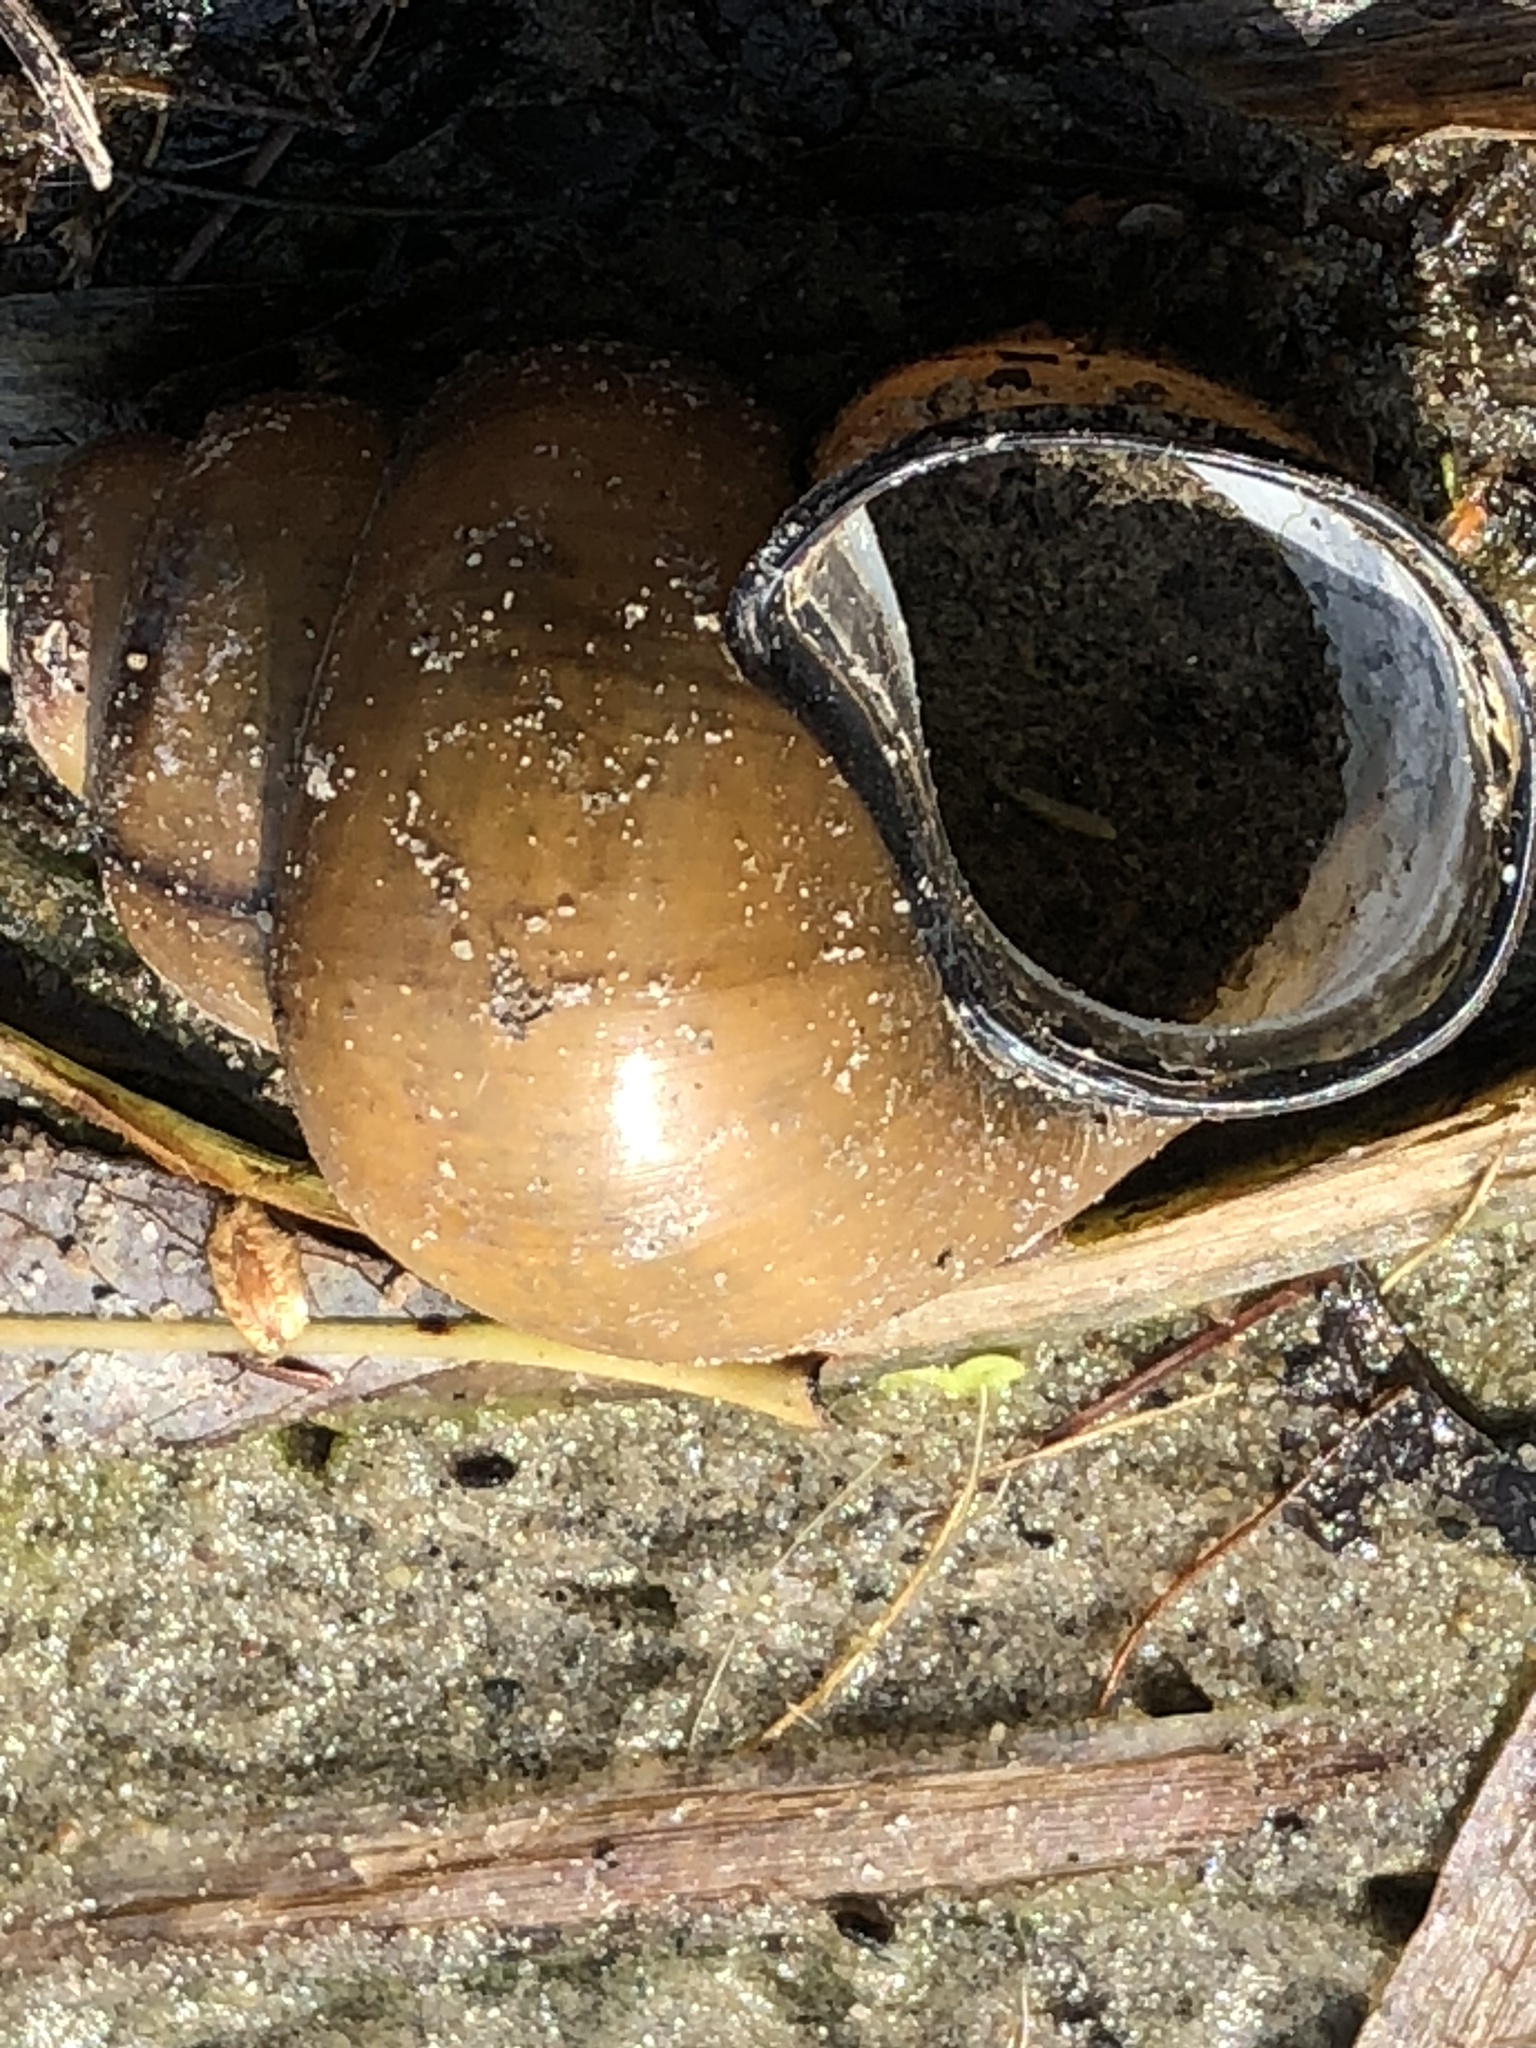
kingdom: Animalia
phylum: Mollusca
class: Gastropoda
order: Architaenioglossa
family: Viviparidae
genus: Cipangopaludina
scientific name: Cipangopaludina chinensis
